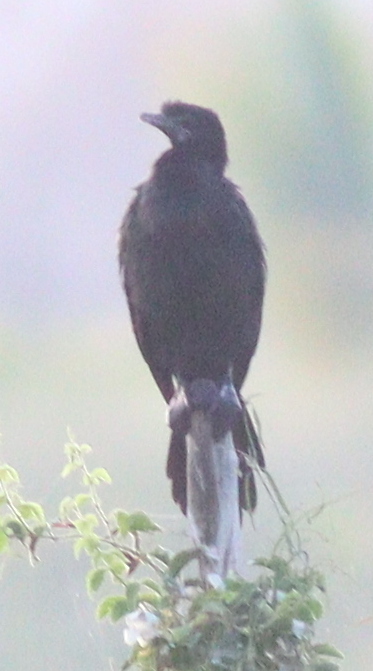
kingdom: Animalia
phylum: Chordata
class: Aves
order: Suliformes
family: Phalacrocoracidae
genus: Microcarbo
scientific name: Microcarbo niger
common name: Little cormorant
